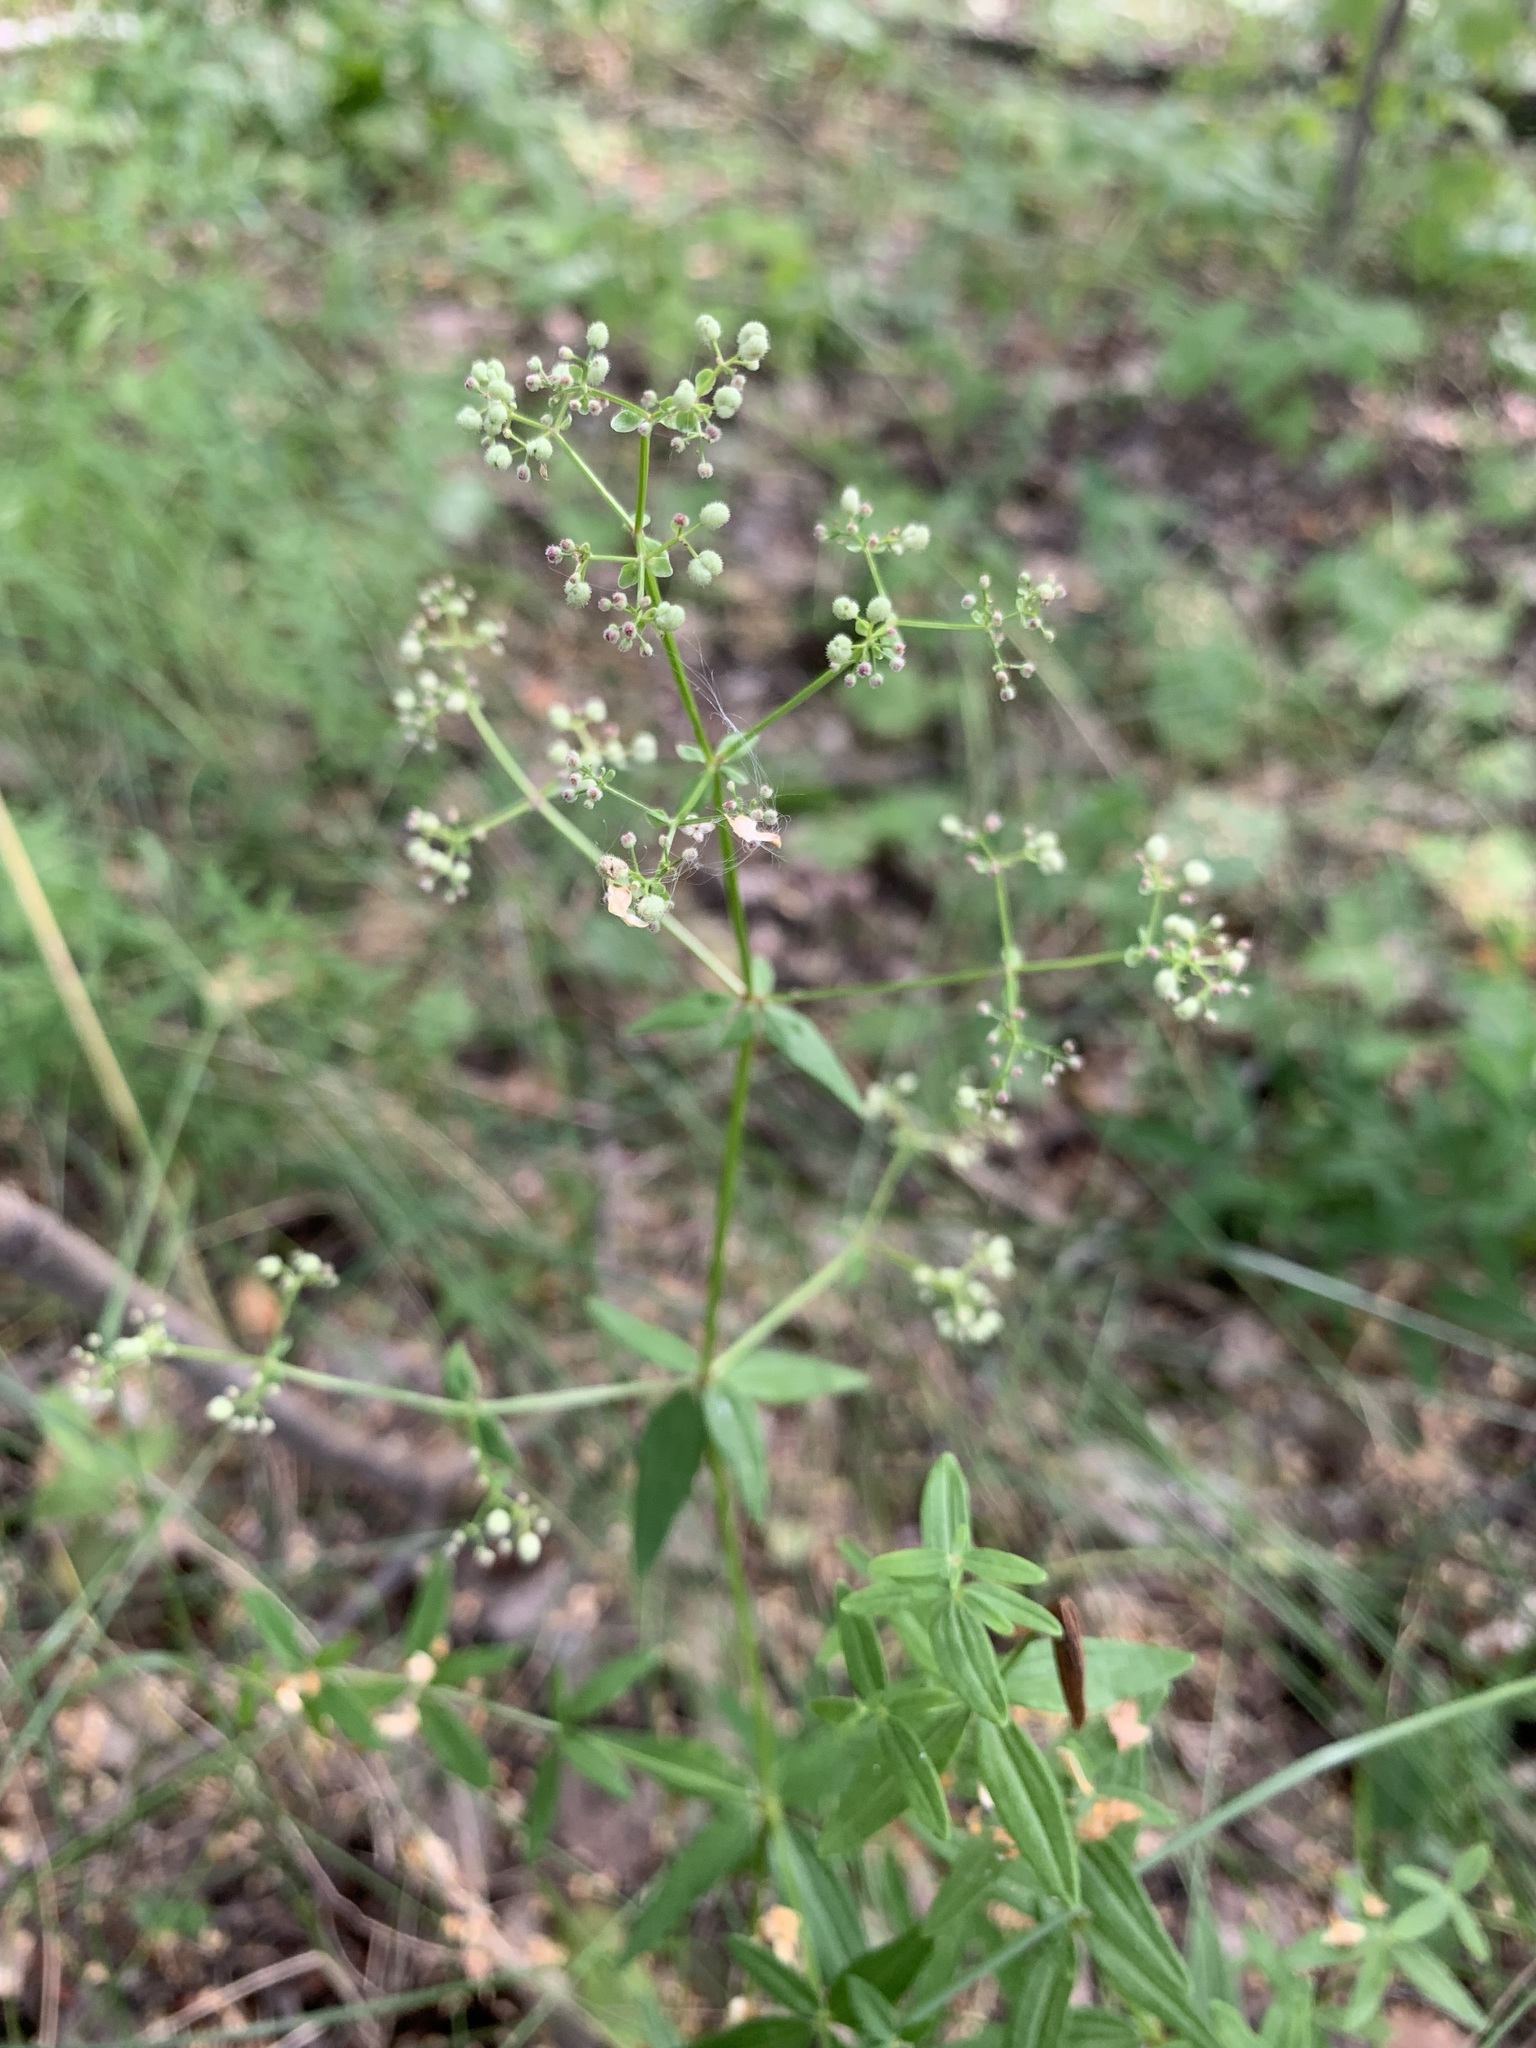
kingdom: Plantae
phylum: Tracheophyta
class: Magnoliopsida
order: Gentianales
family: Rubiaceae
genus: Galium
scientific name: Galium boreale
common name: Northern bedstraw
